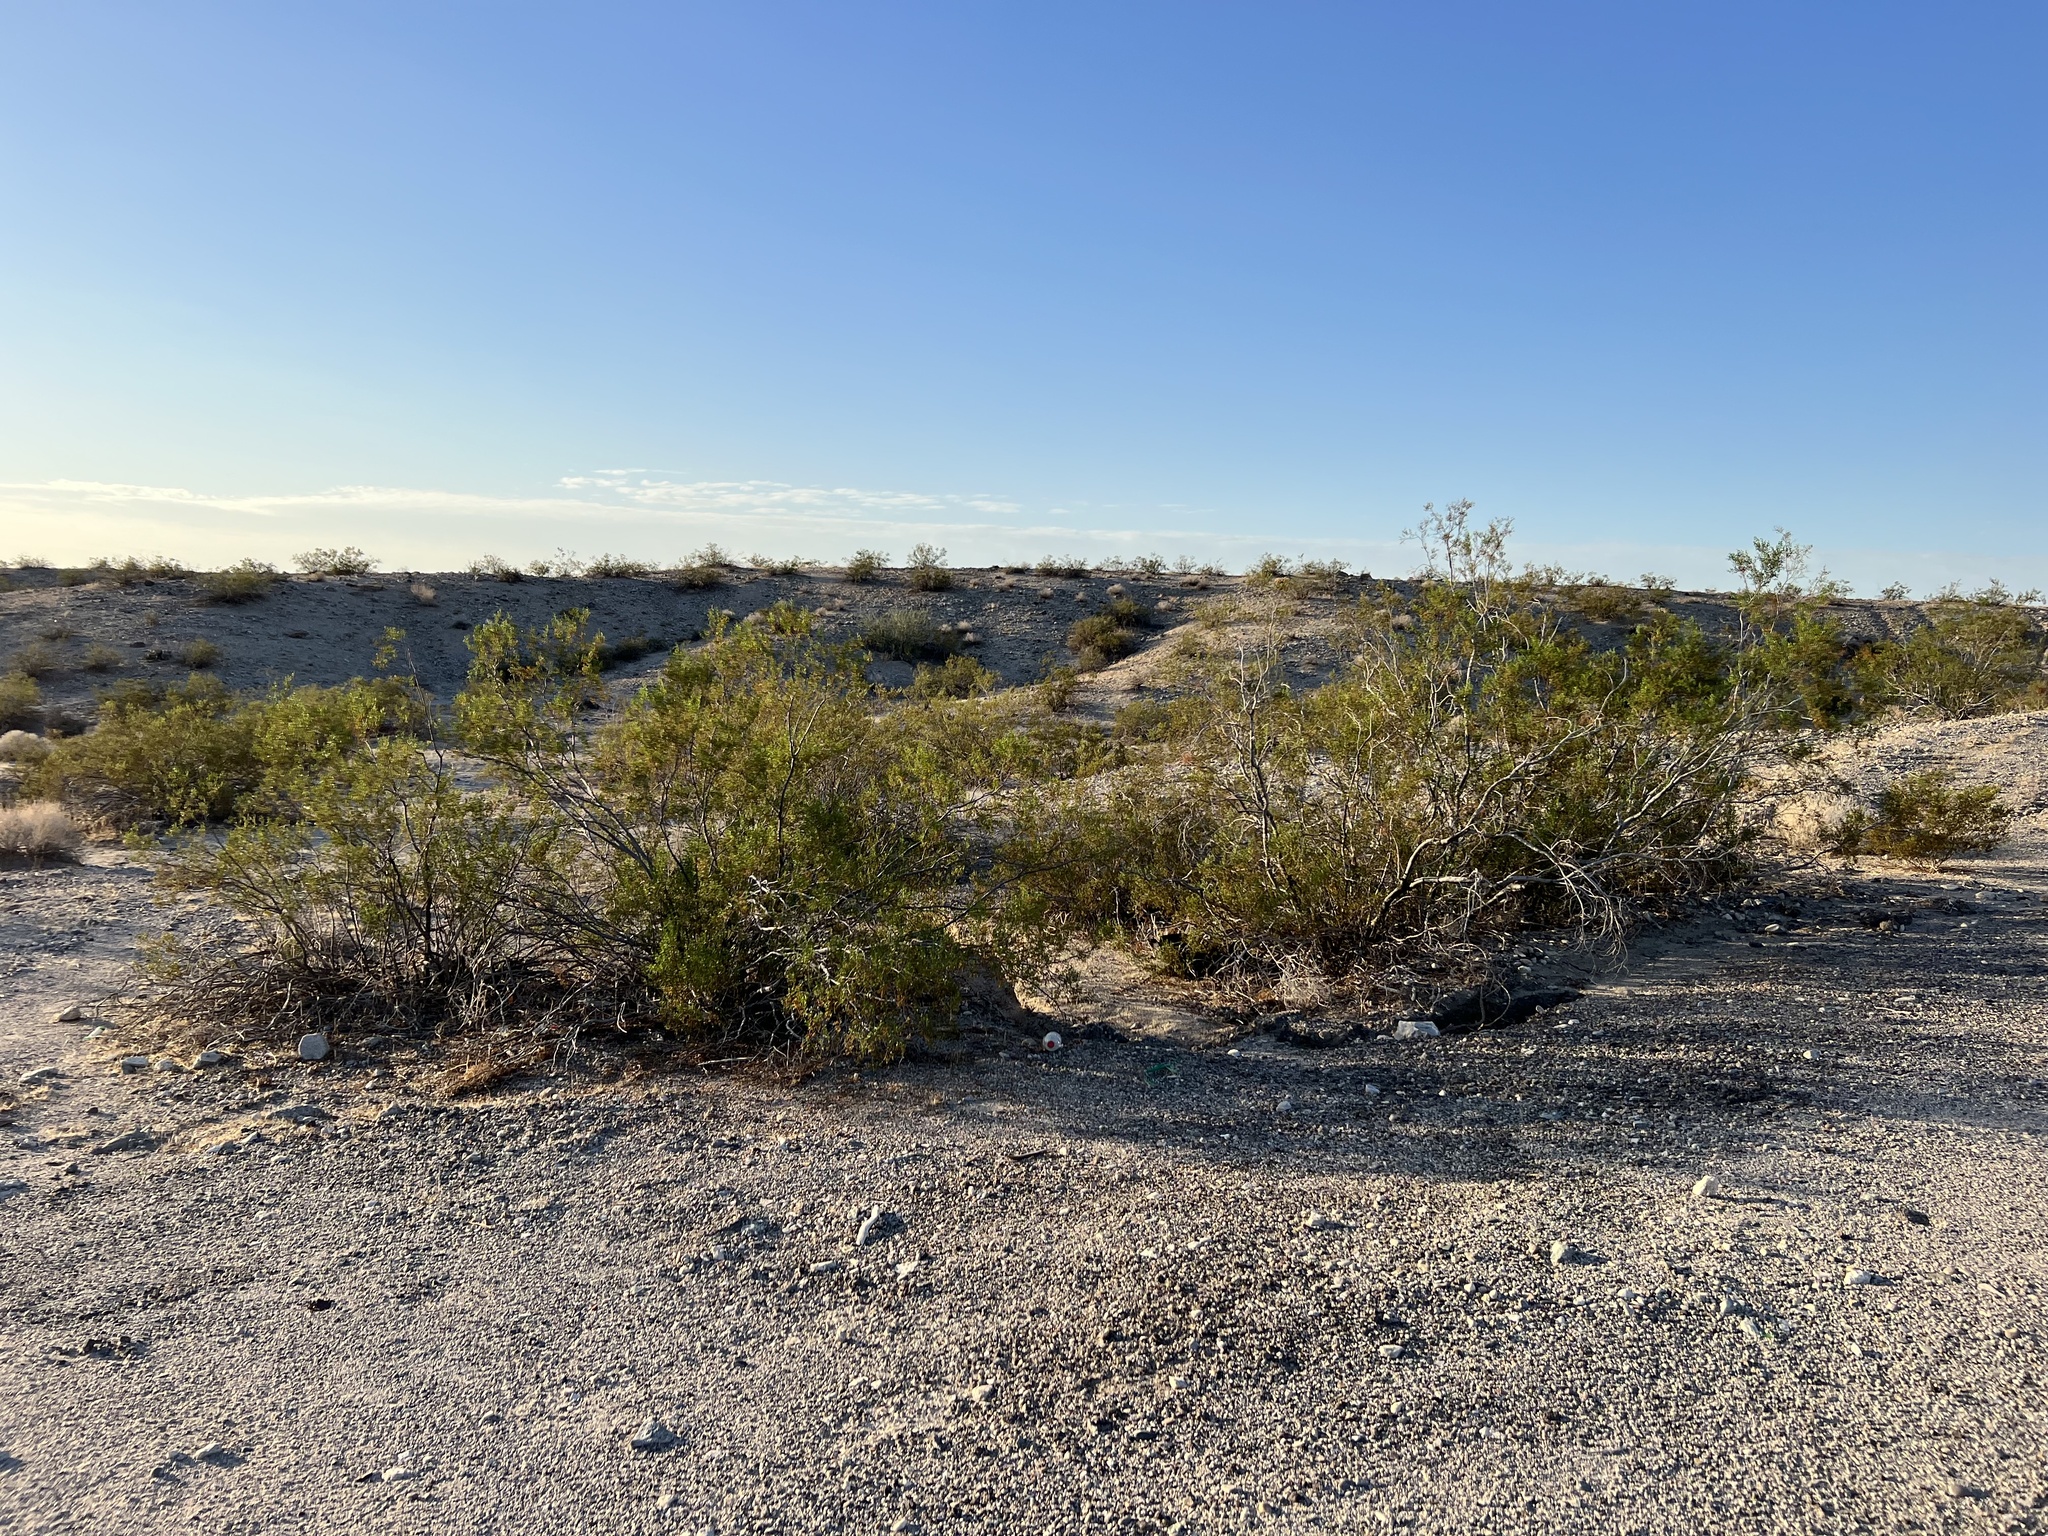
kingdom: Plantae
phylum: Tracheophyta
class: Magnoliopsida
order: Zygophyllales
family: Zygophyllaceae
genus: Larrea
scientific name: Larrea tridentata
